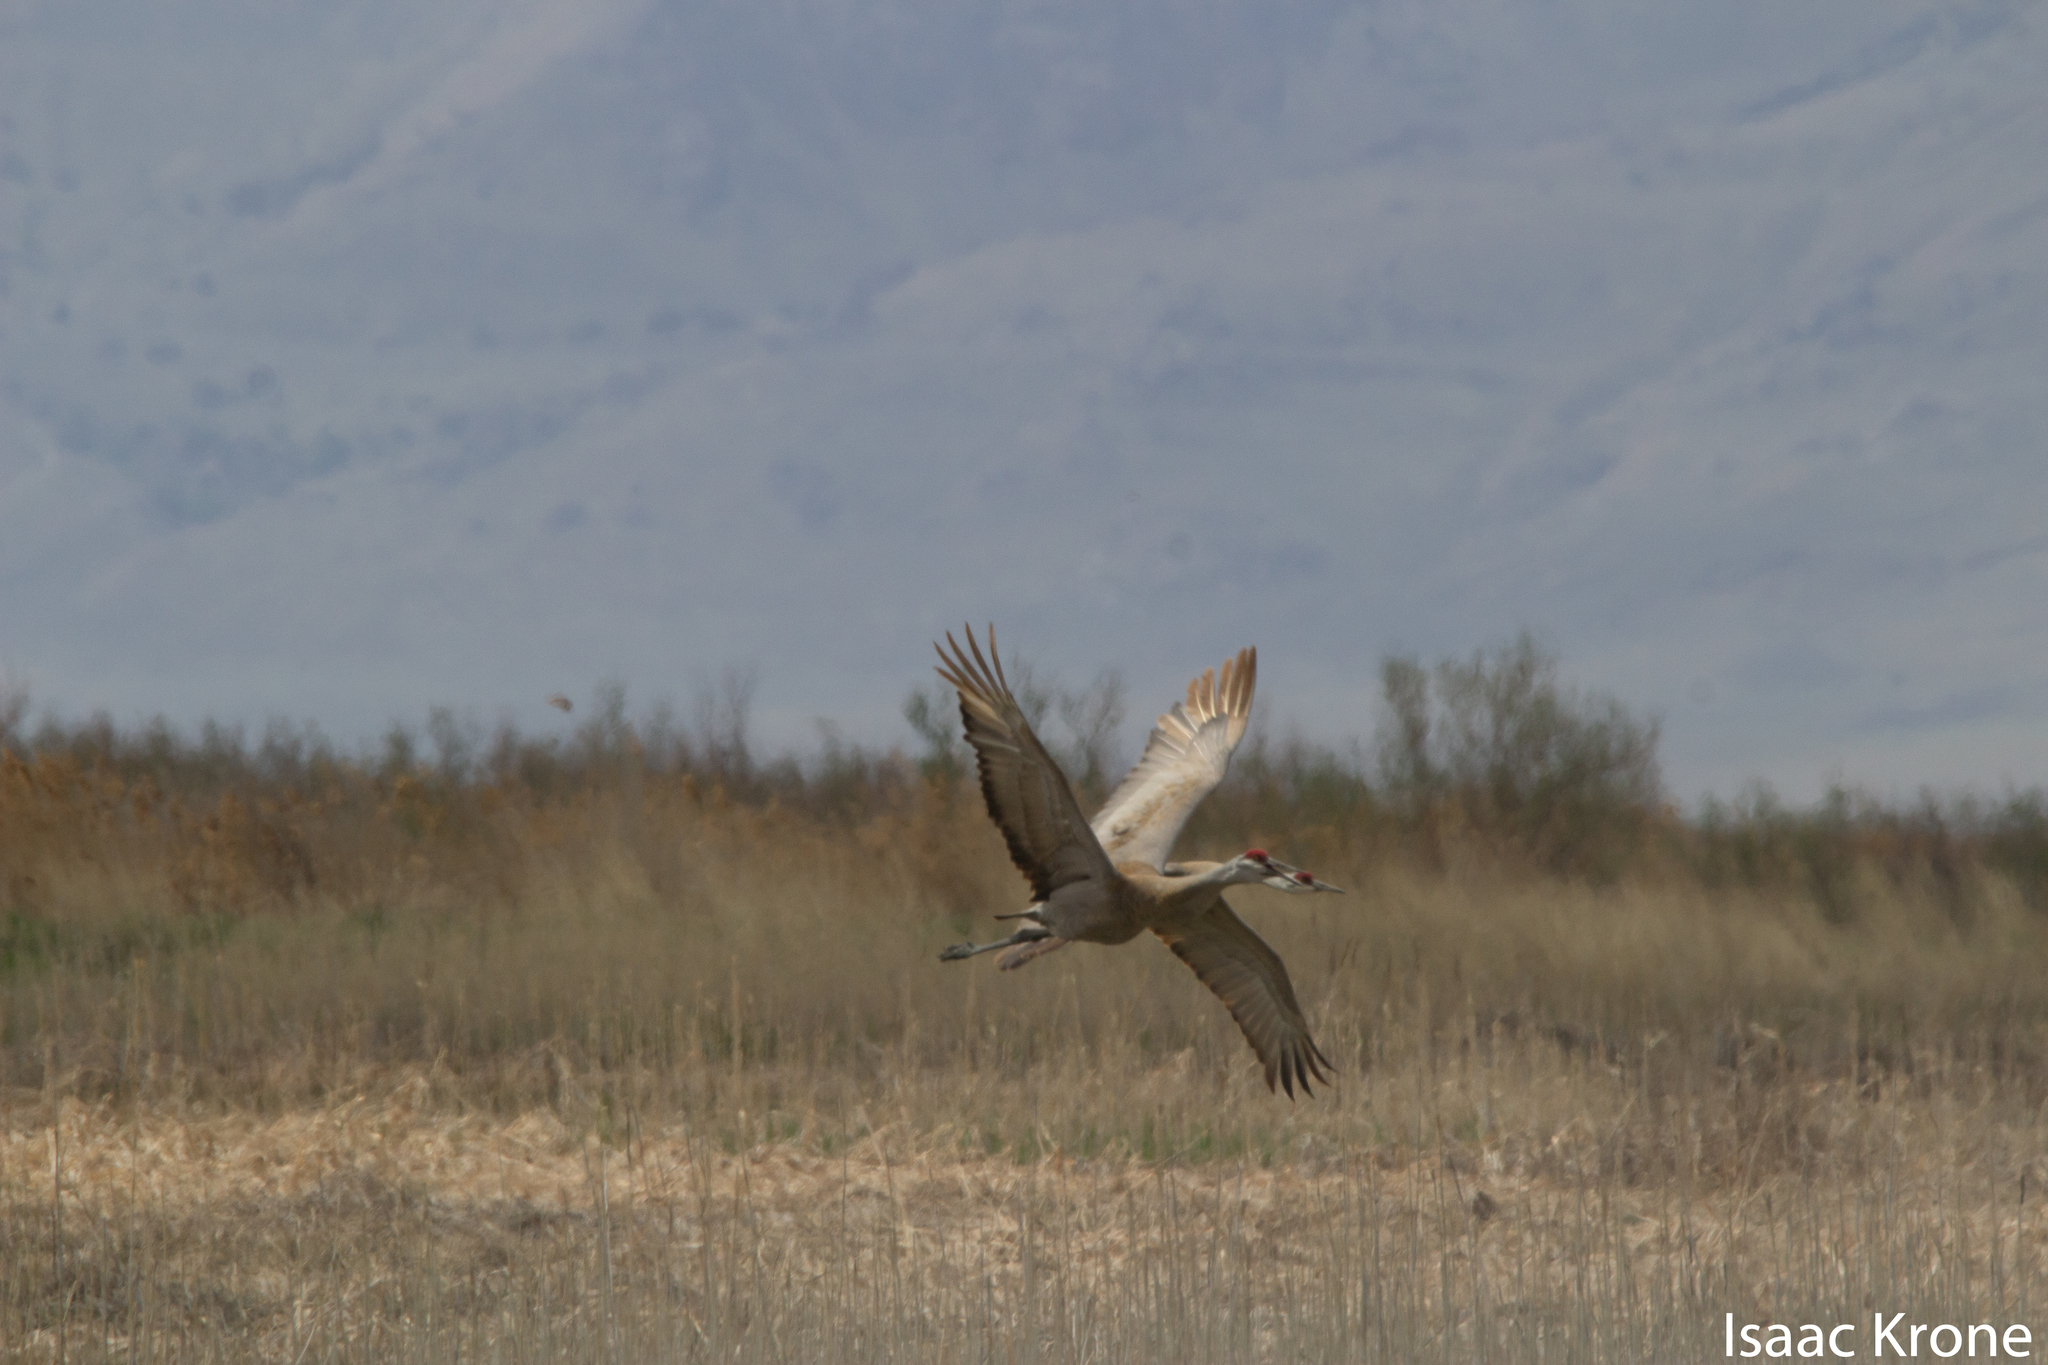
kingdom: Animalia
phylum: Chordata
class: Aves
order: Gruiformes
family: Gruidae
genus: Grus
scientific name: Grus canadensis
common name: Sandhill crane
